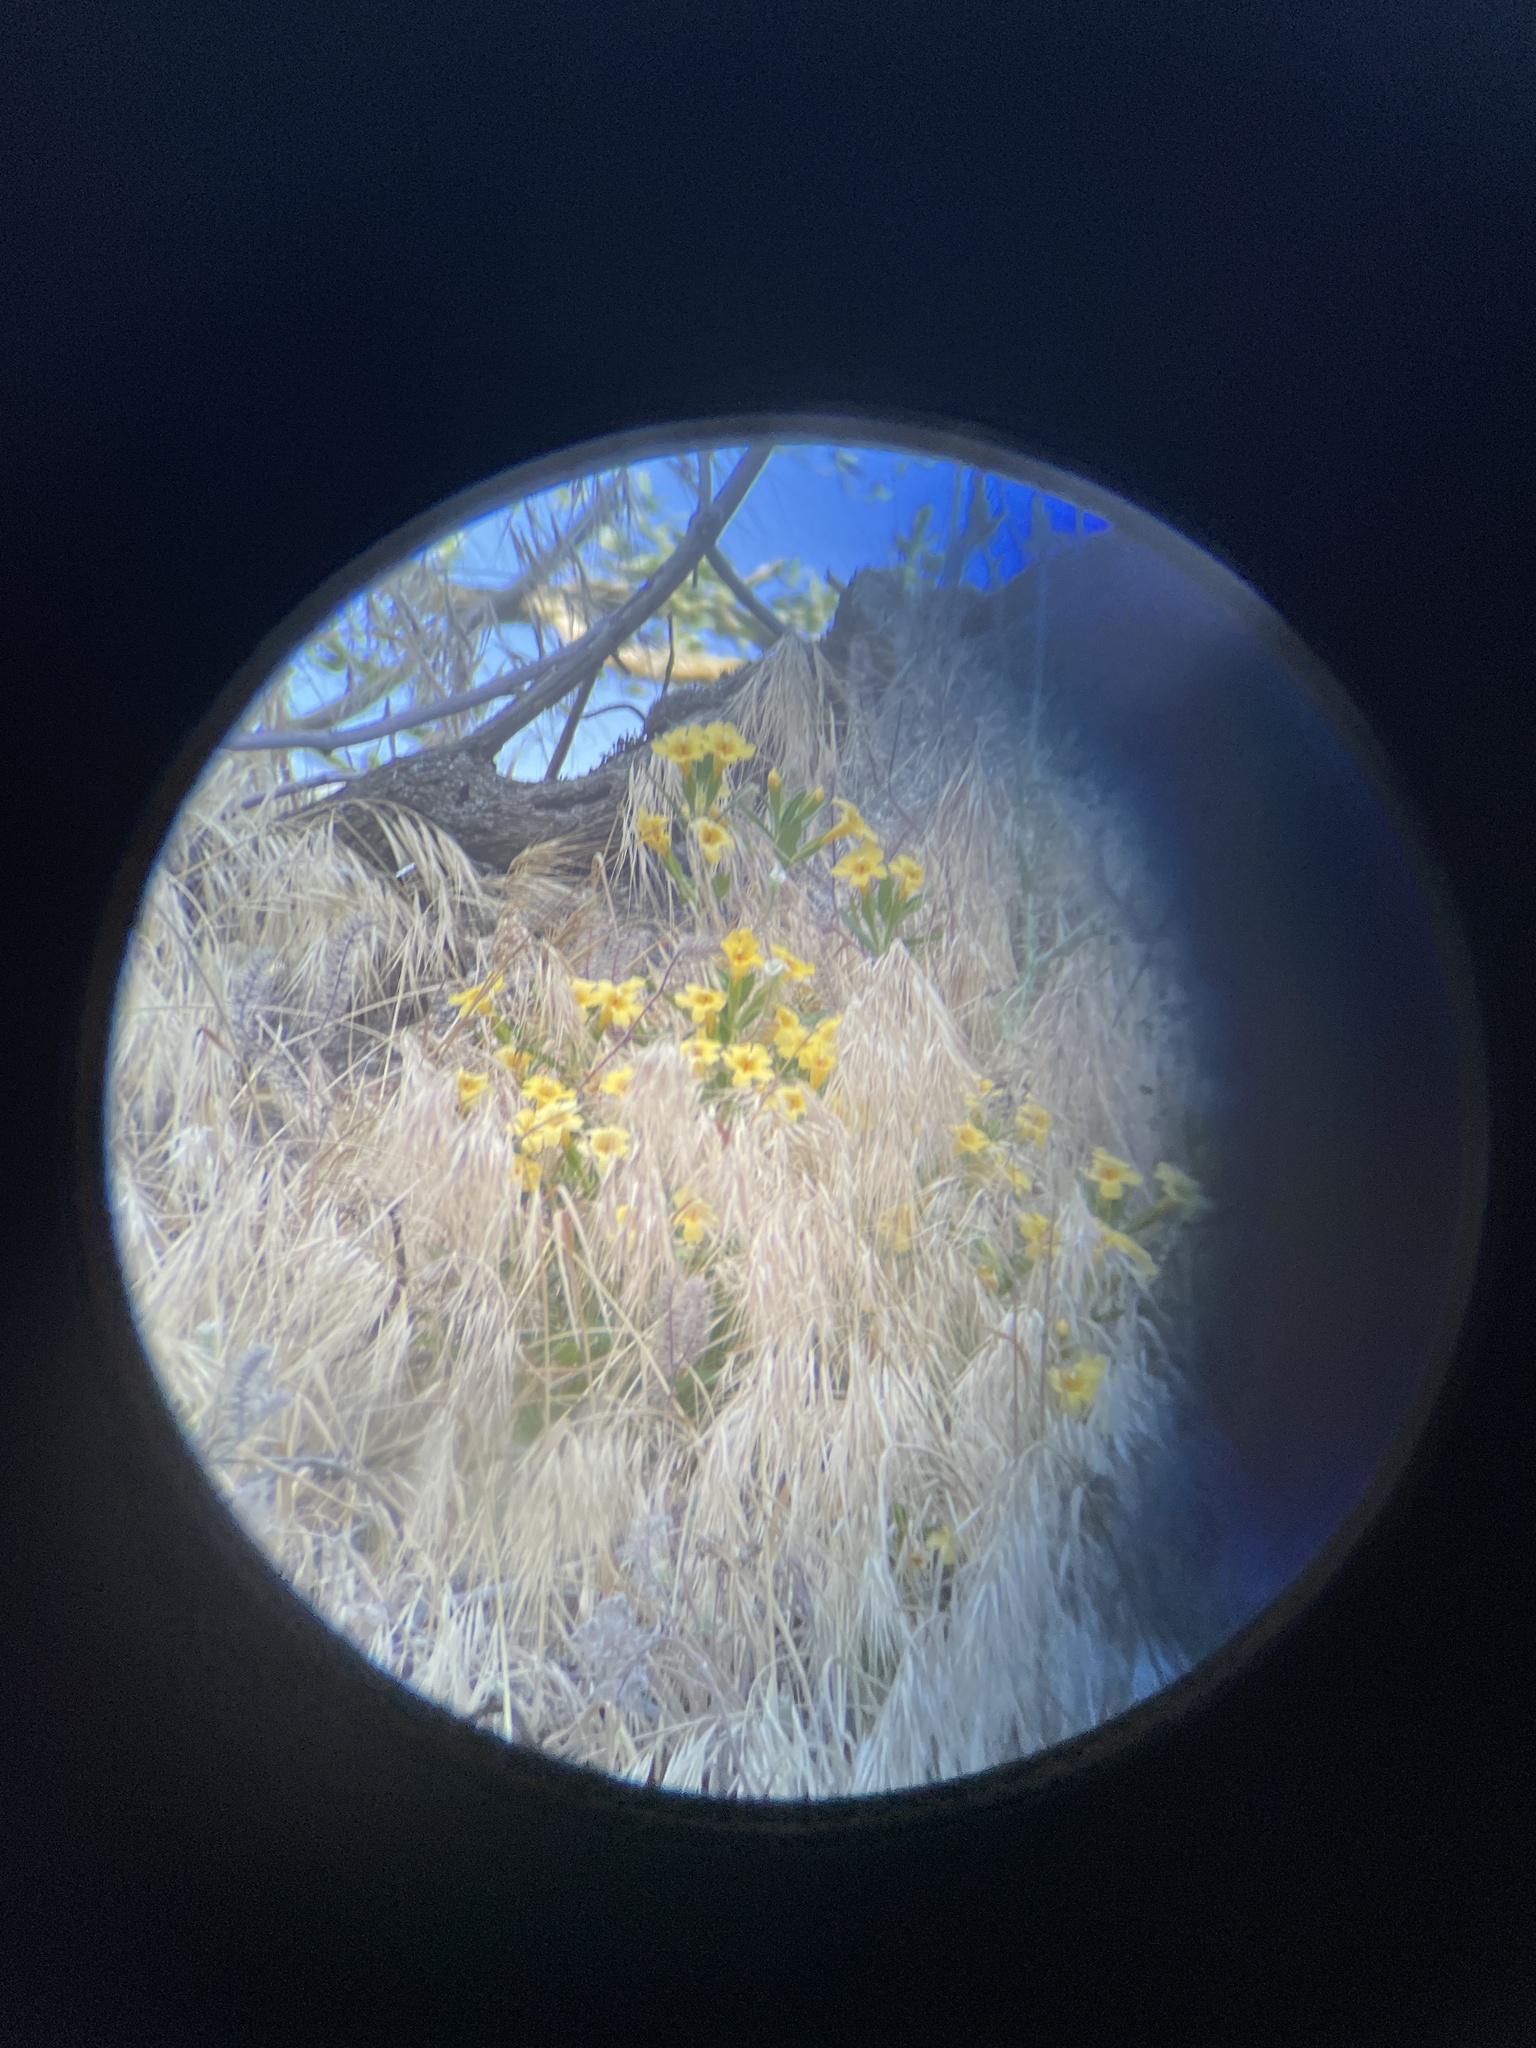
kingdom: Plantae
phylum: Tracheophyta
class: Magnoliopsida
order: Lamiales
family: Phrymaceae
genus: Diplacus
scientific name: Diplacus calycinus
